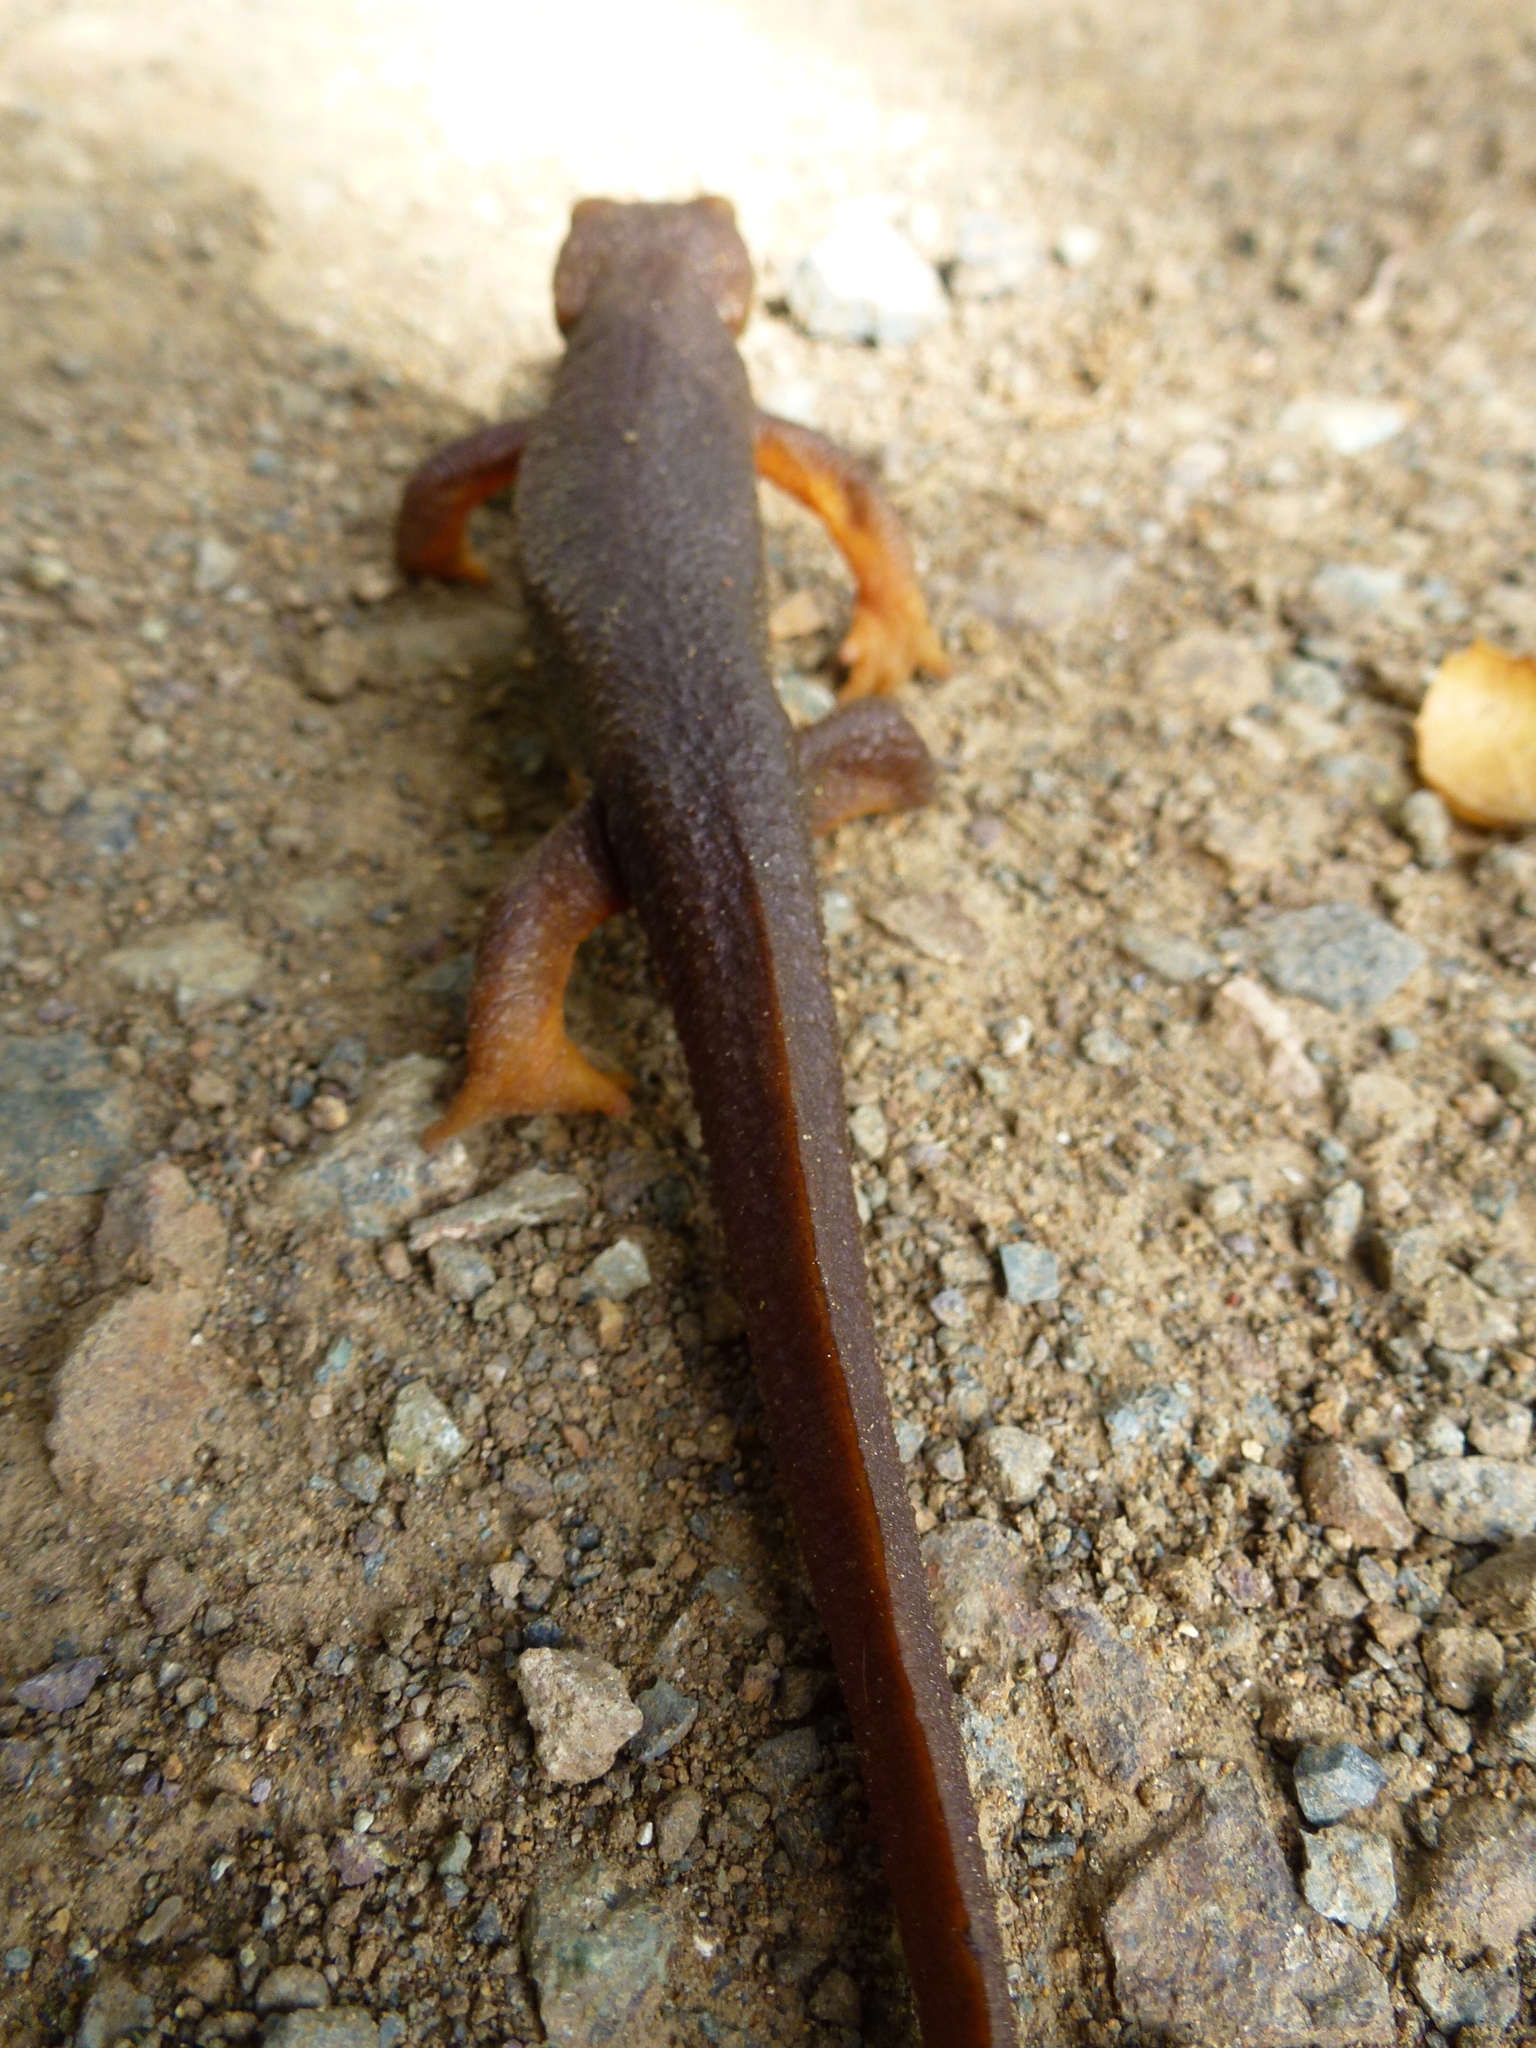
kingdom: Animalia
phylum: Chordata
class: Amphibia
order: Caudata
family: Salamandridae
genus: Taricha
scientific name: Taricha torosa
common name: California newt
